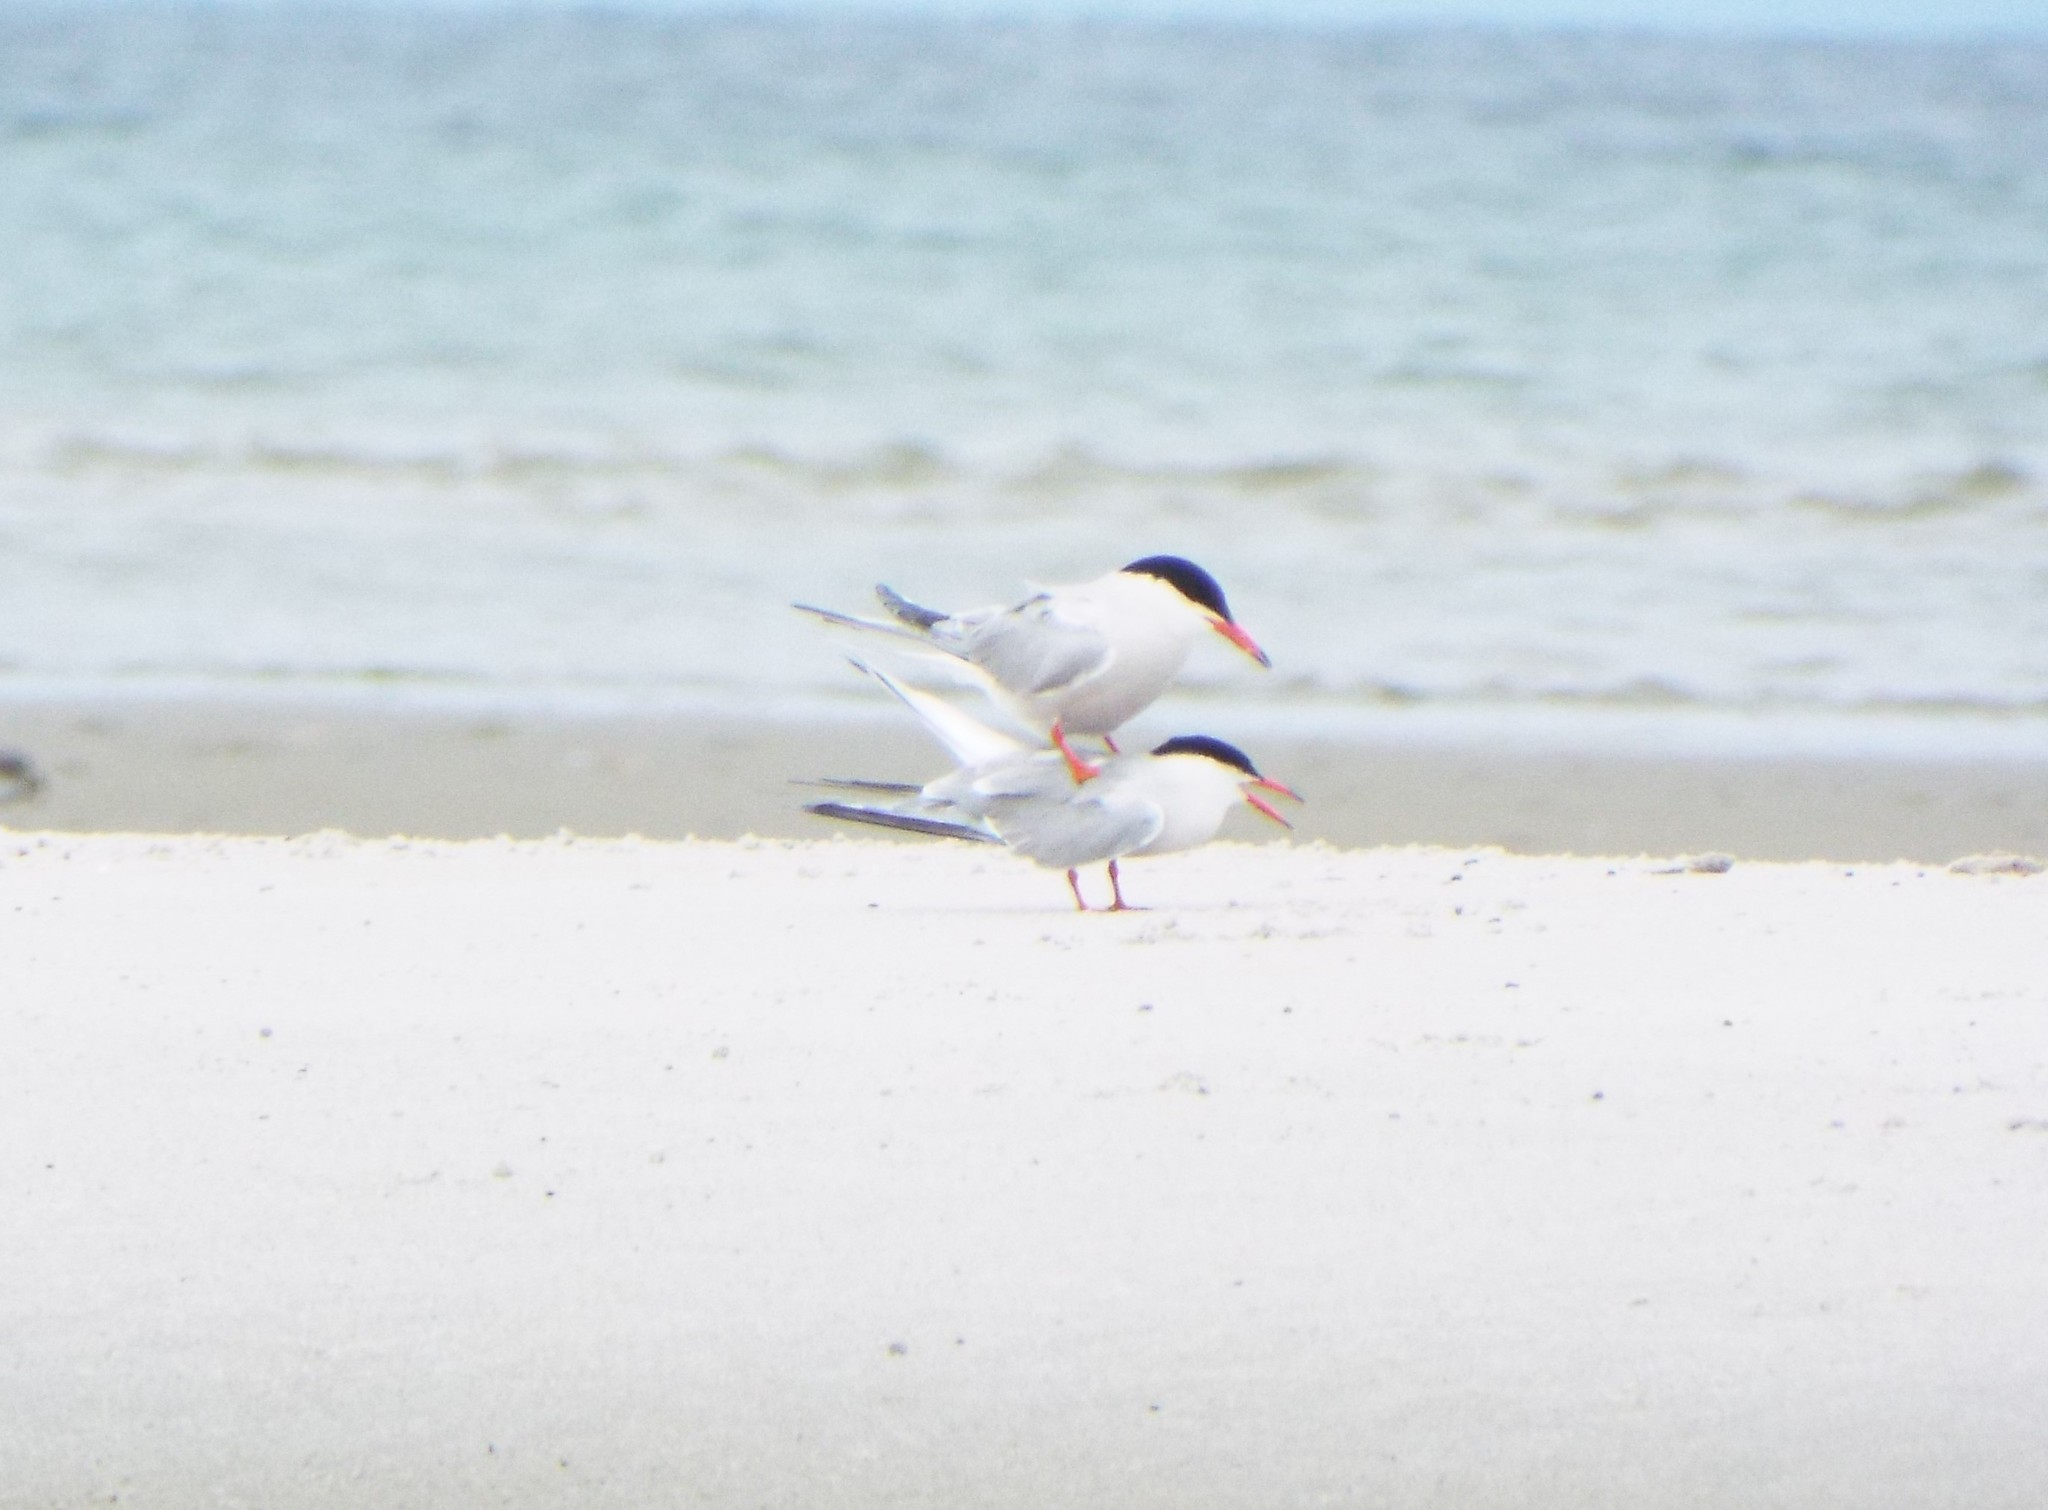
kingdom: Animalia
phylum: Chordata
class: Aves
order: Charadriiformes
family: Laridae
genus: Sterna
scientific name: Sterna hirundo
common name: Common tern
